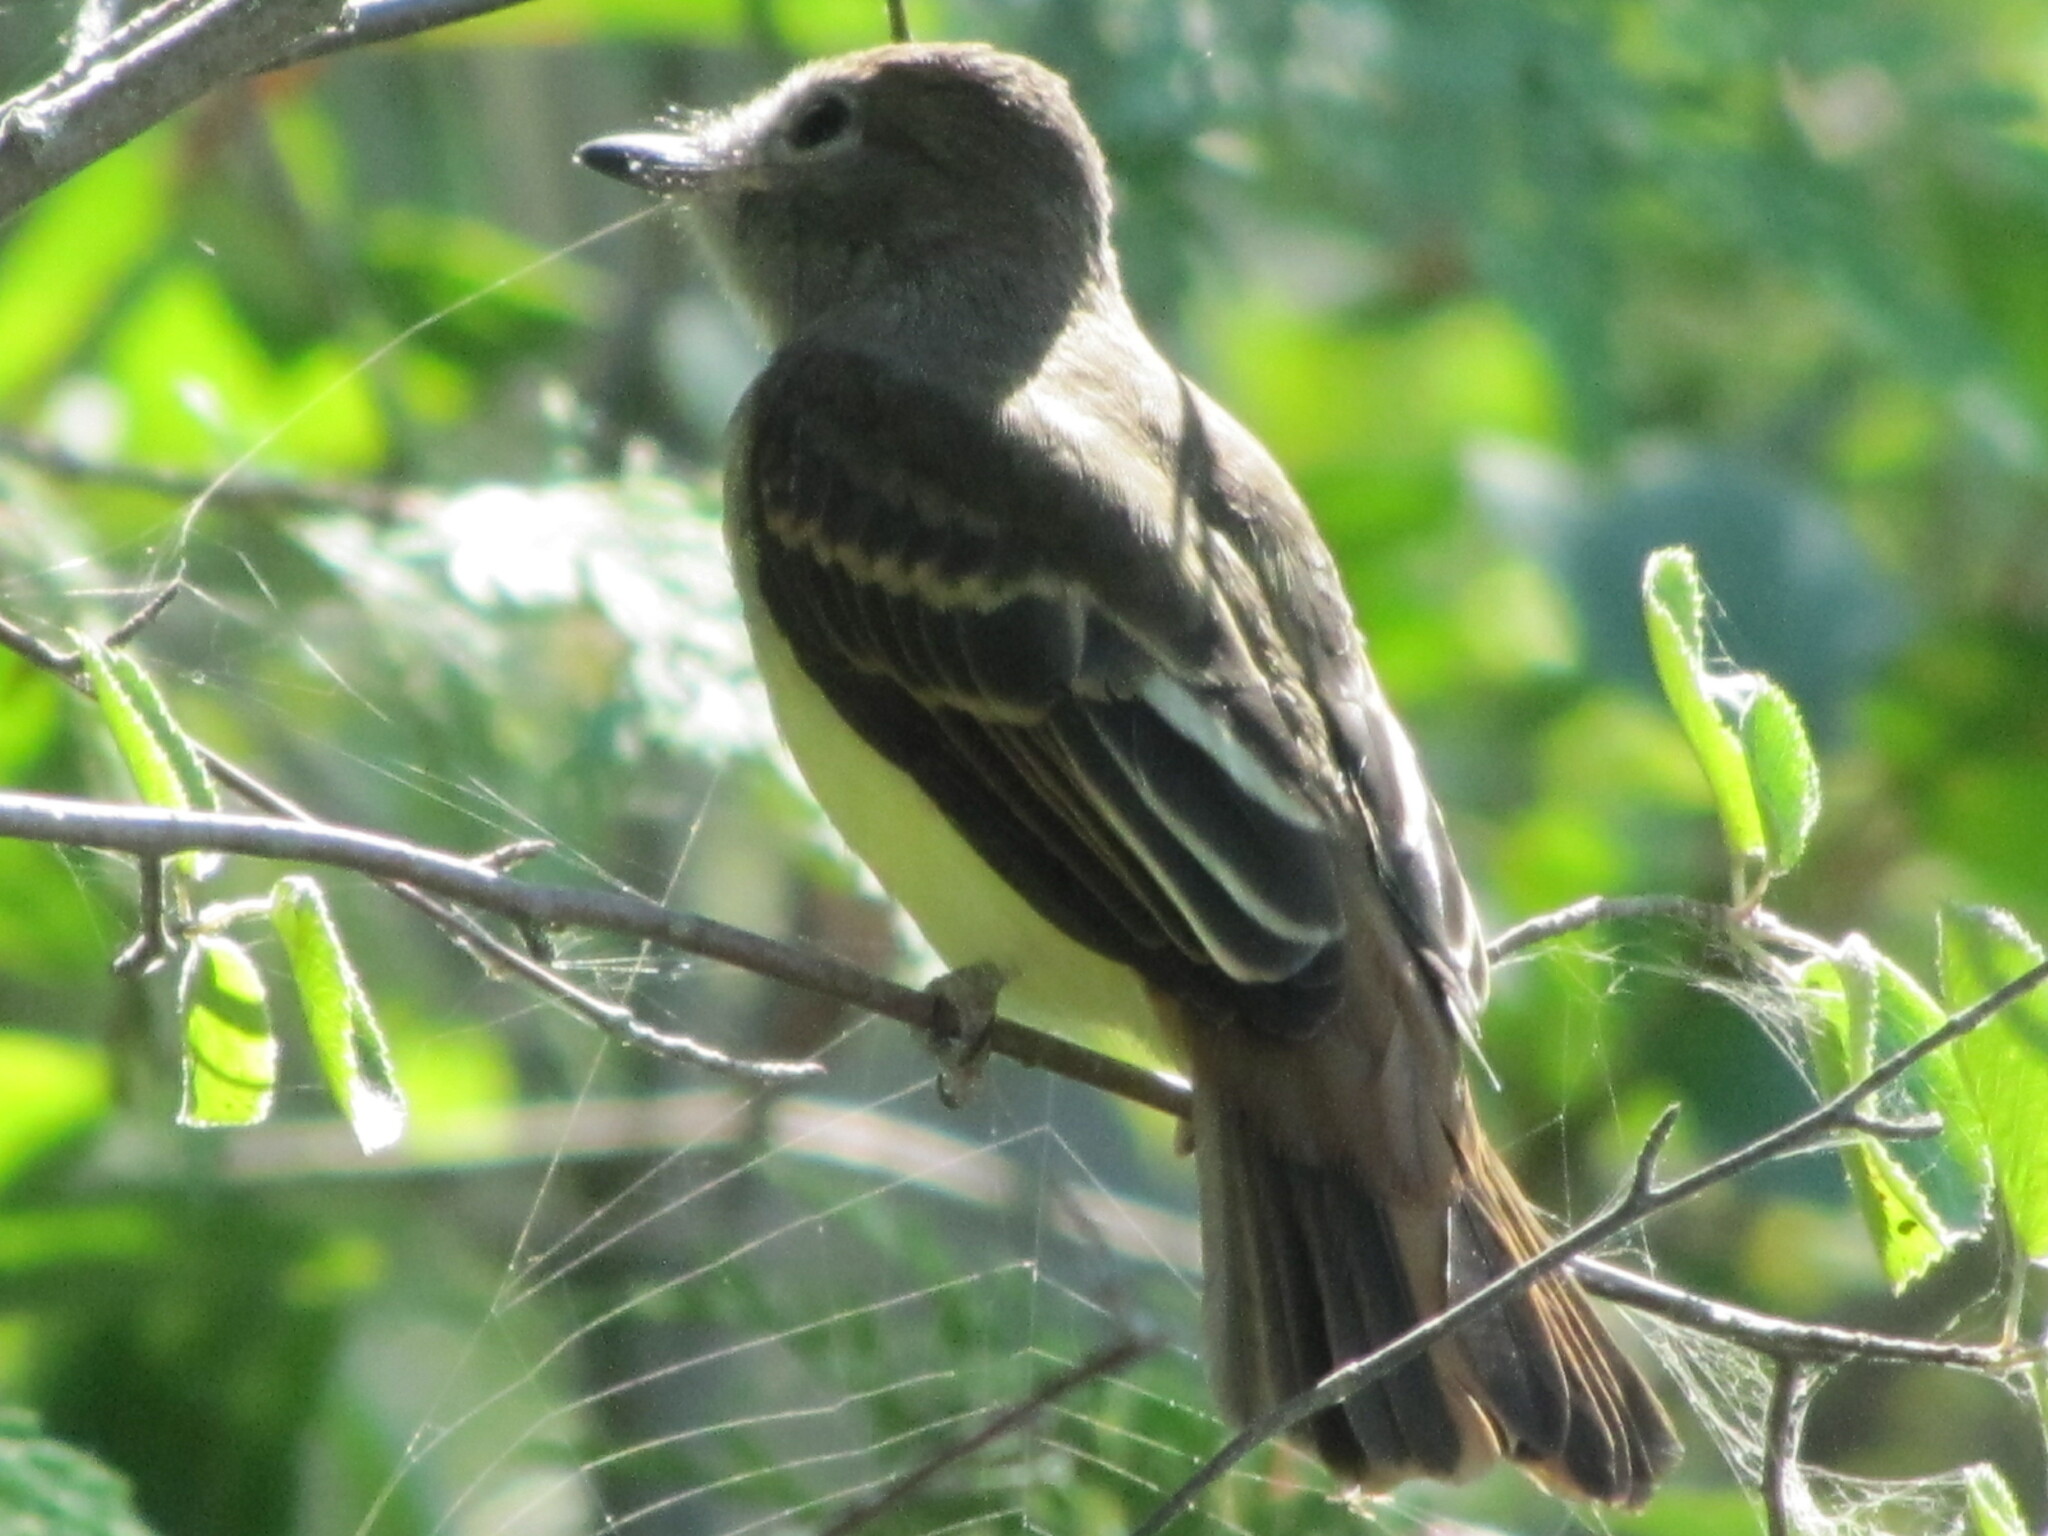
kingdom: Animalia
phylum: Chordata
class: Aves
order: Passeriformes
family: Tyrannidae
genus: Myiarchus
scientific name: Myiarchus crinitus
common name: Great crested flycatcher
